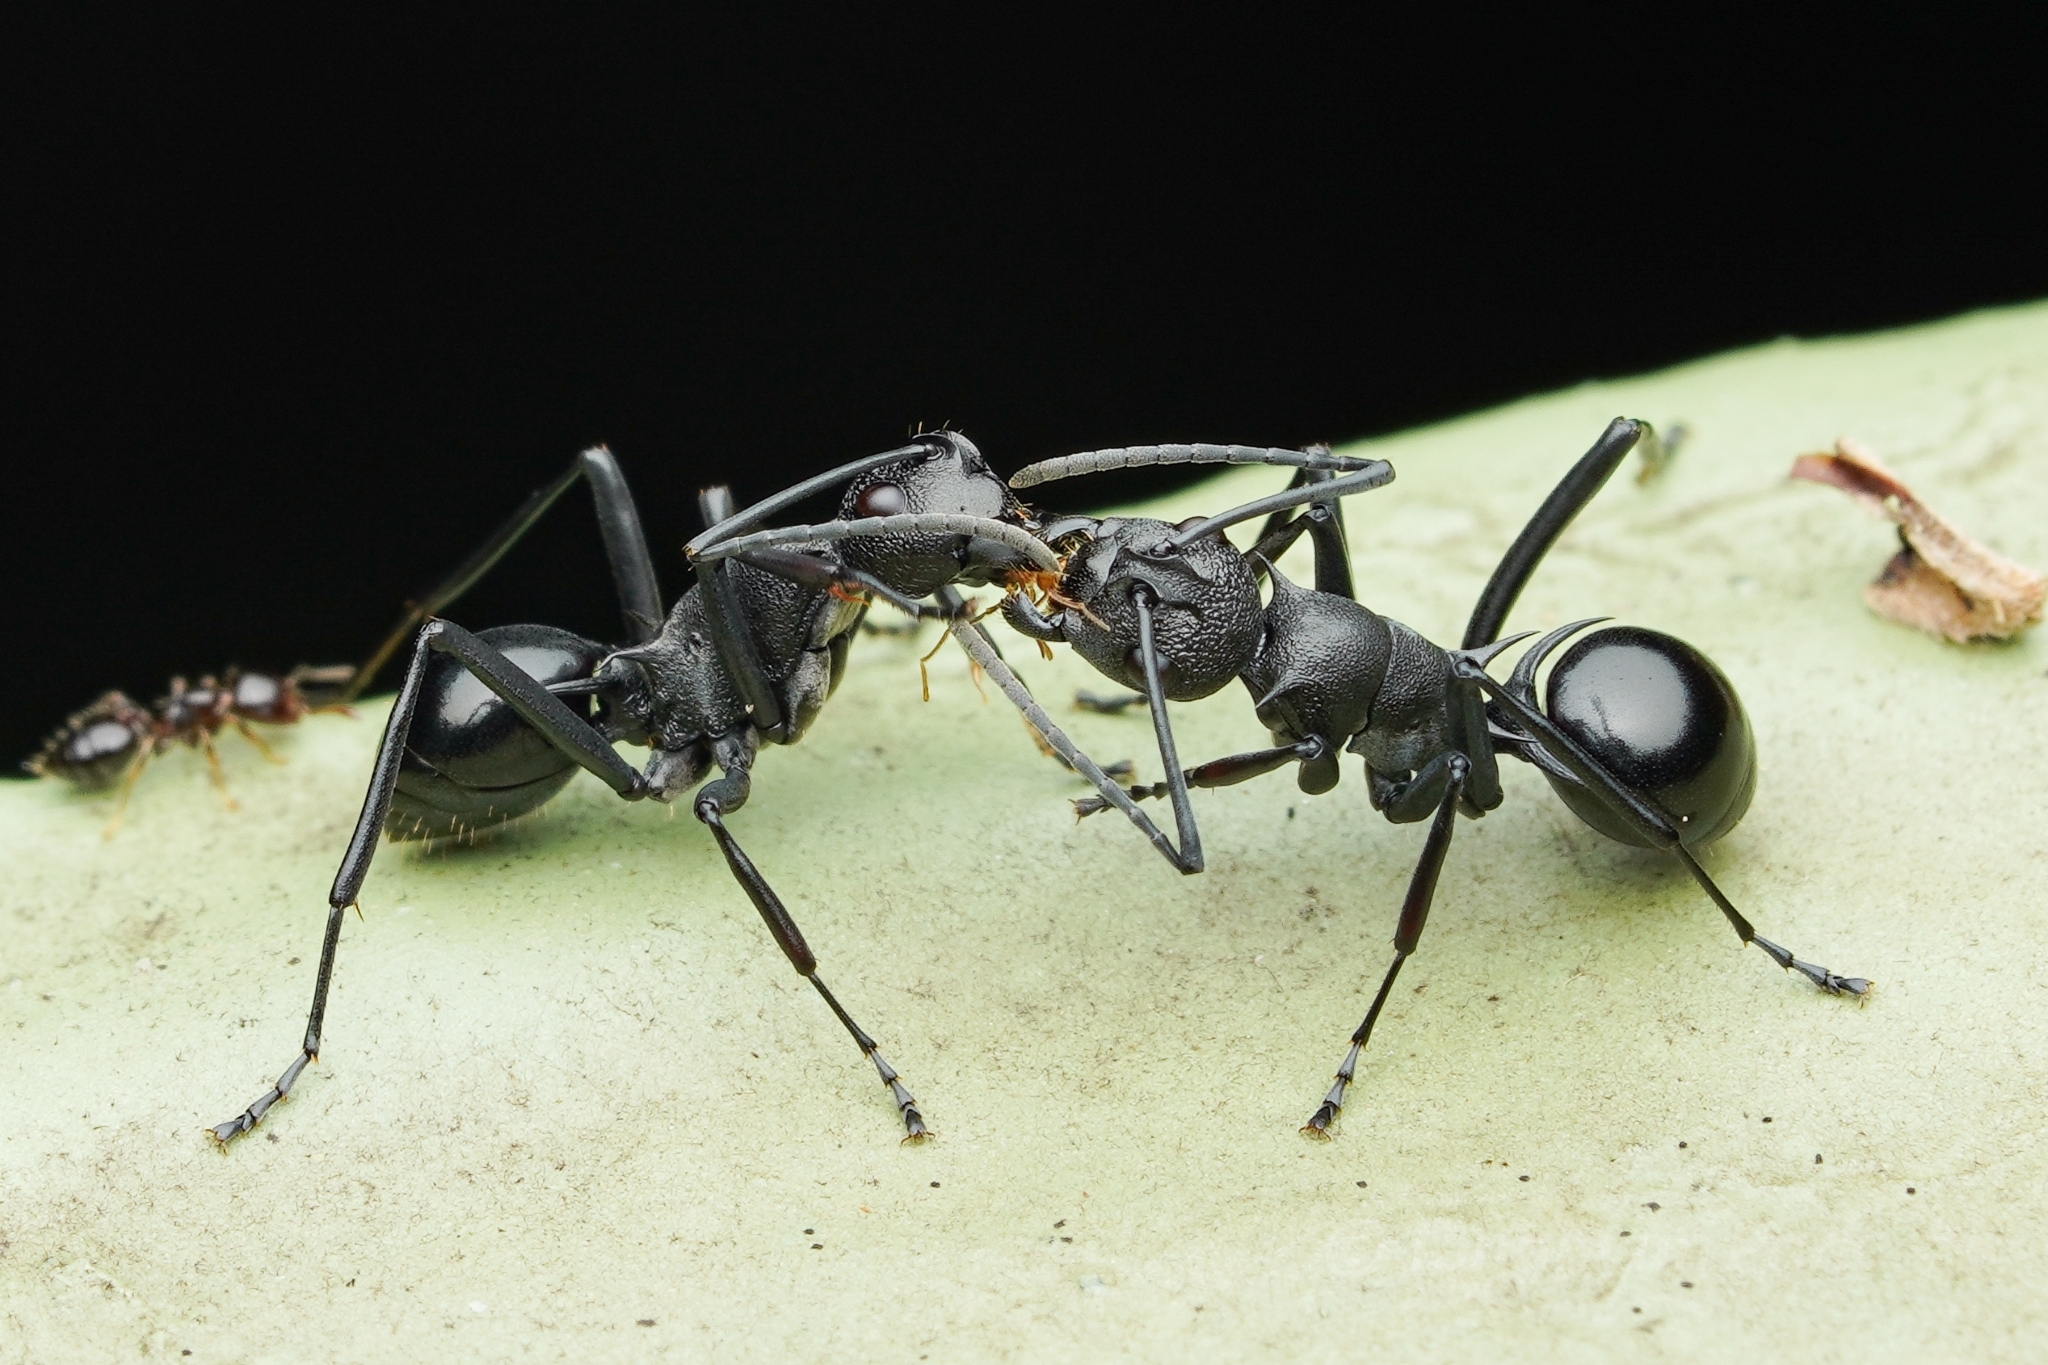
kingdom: Animalia
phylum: Arthropoda
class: Insecta
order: Hymenoptera
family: Formicidae
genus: Polyrhachis
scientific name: Polyrhachis wheeleri
